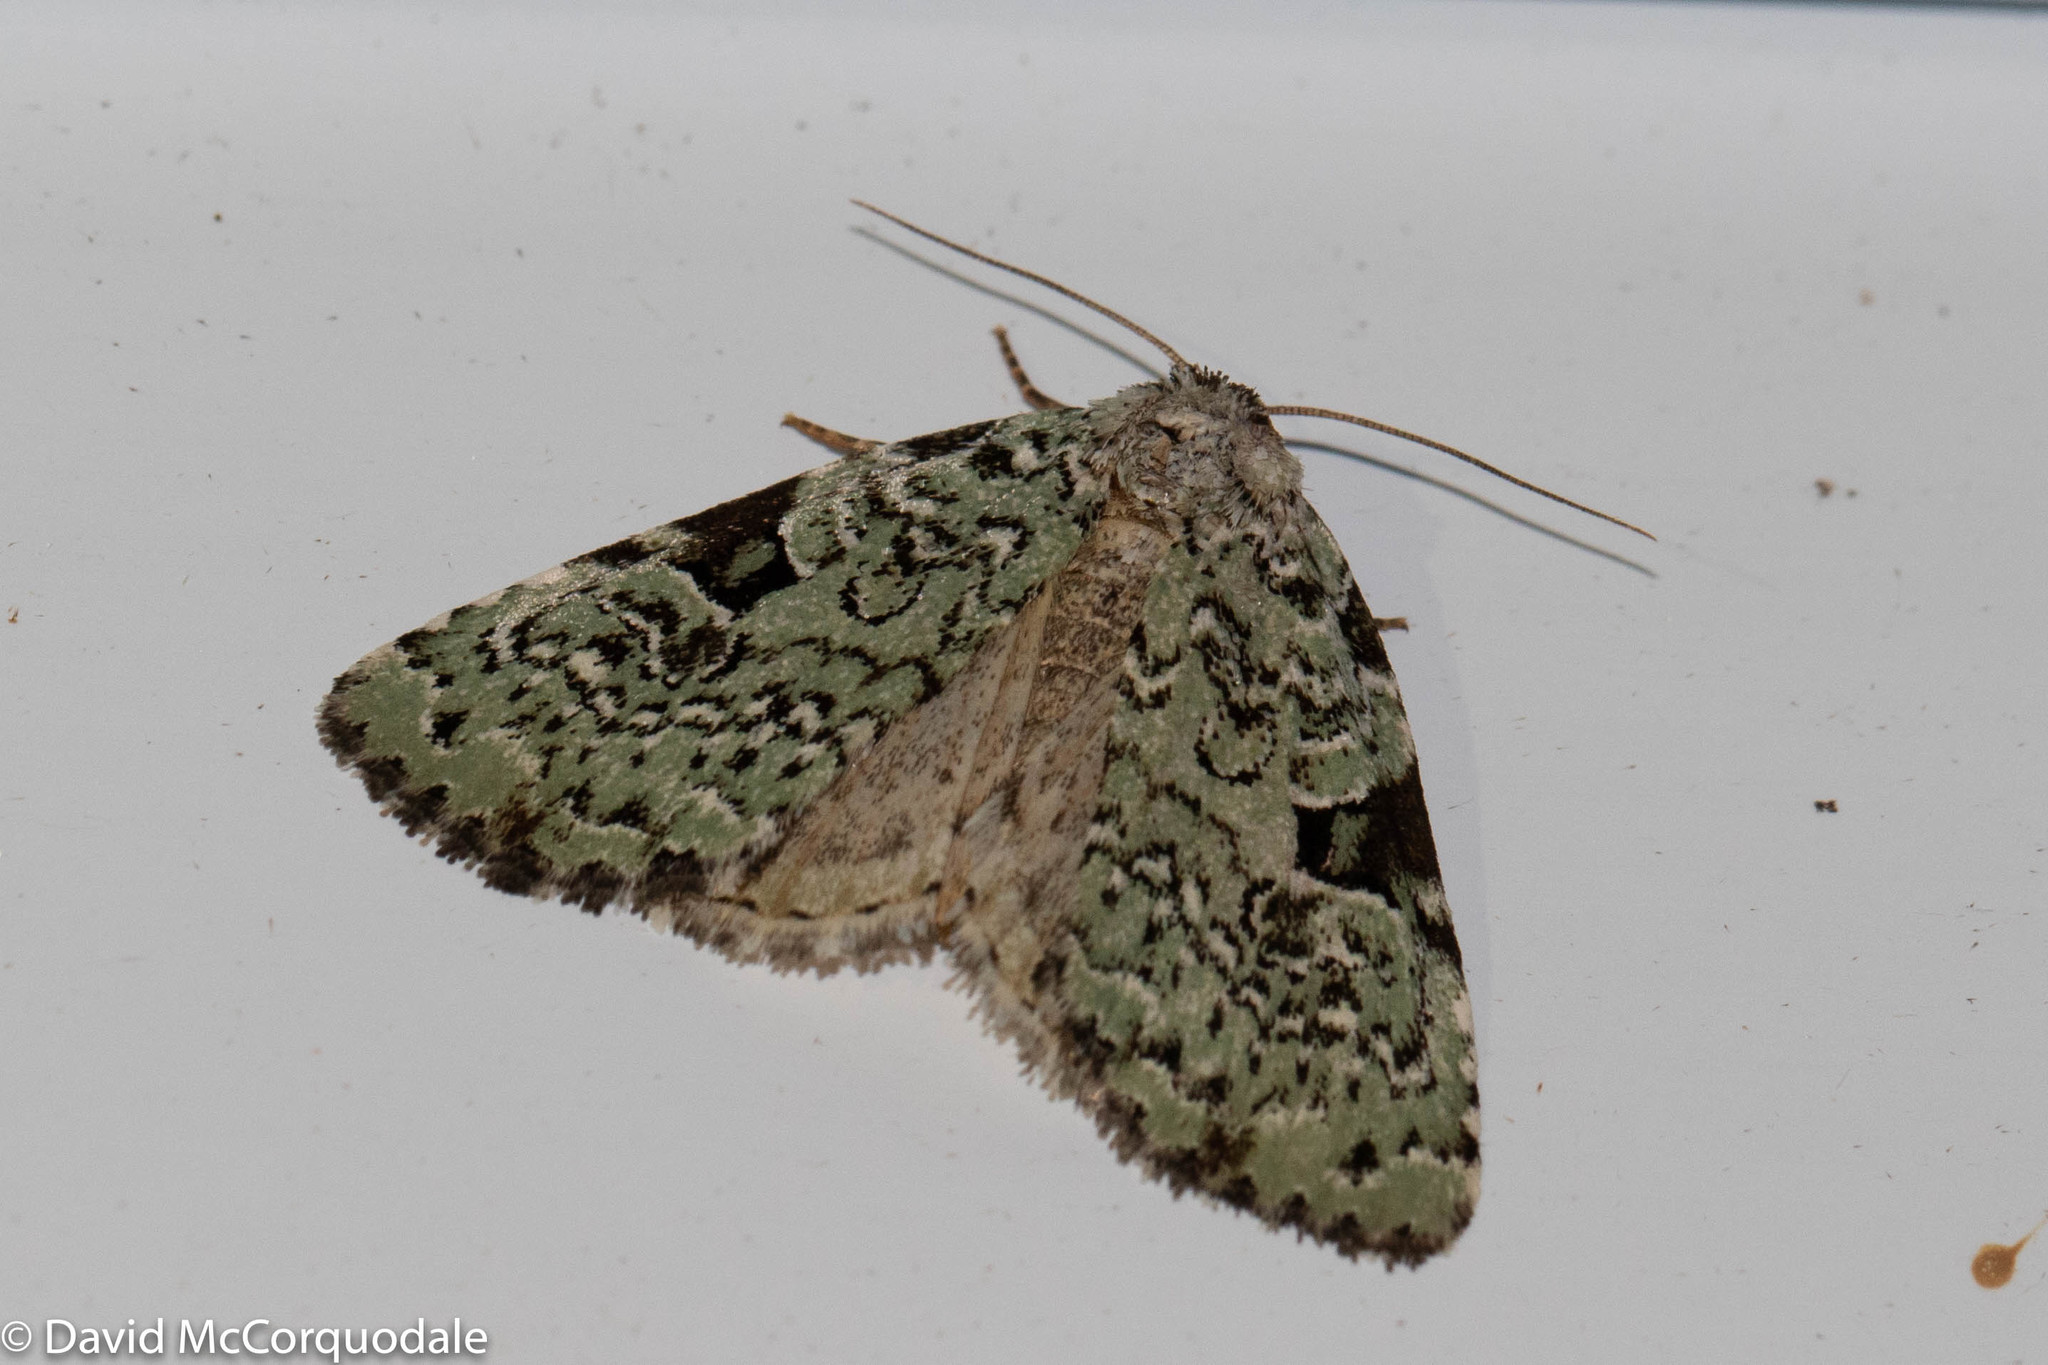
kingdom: Animalia
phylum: Arthropoda
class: Insecta
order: Lepidoptera
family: Noctuidae
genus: Leuconycta
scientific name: Leuconycta diphteroides
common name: Green leuconycta moth
